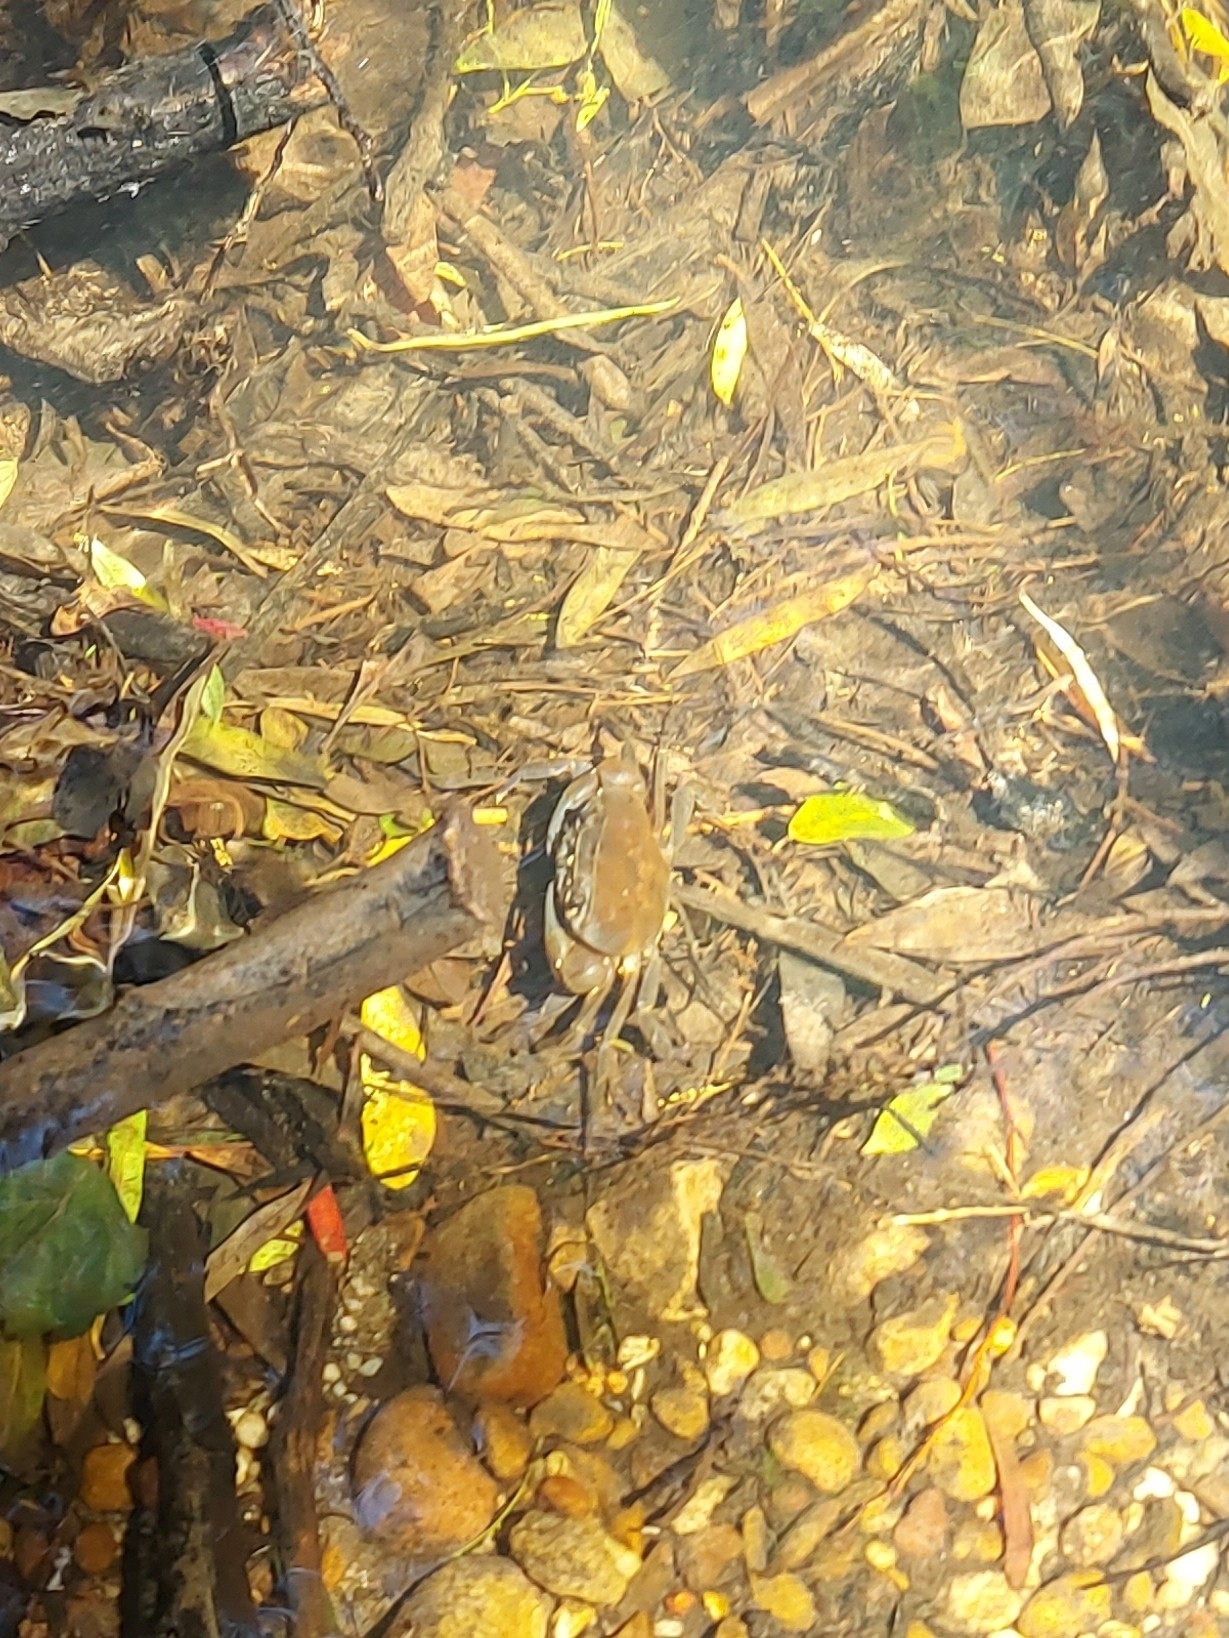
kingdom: Animalia
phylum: Arthropoda
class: Malacostraca
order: Decapoda
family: Potamonautidae
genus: Potamonautes
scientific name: Potamonautes perlatus
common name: Cape river crab
